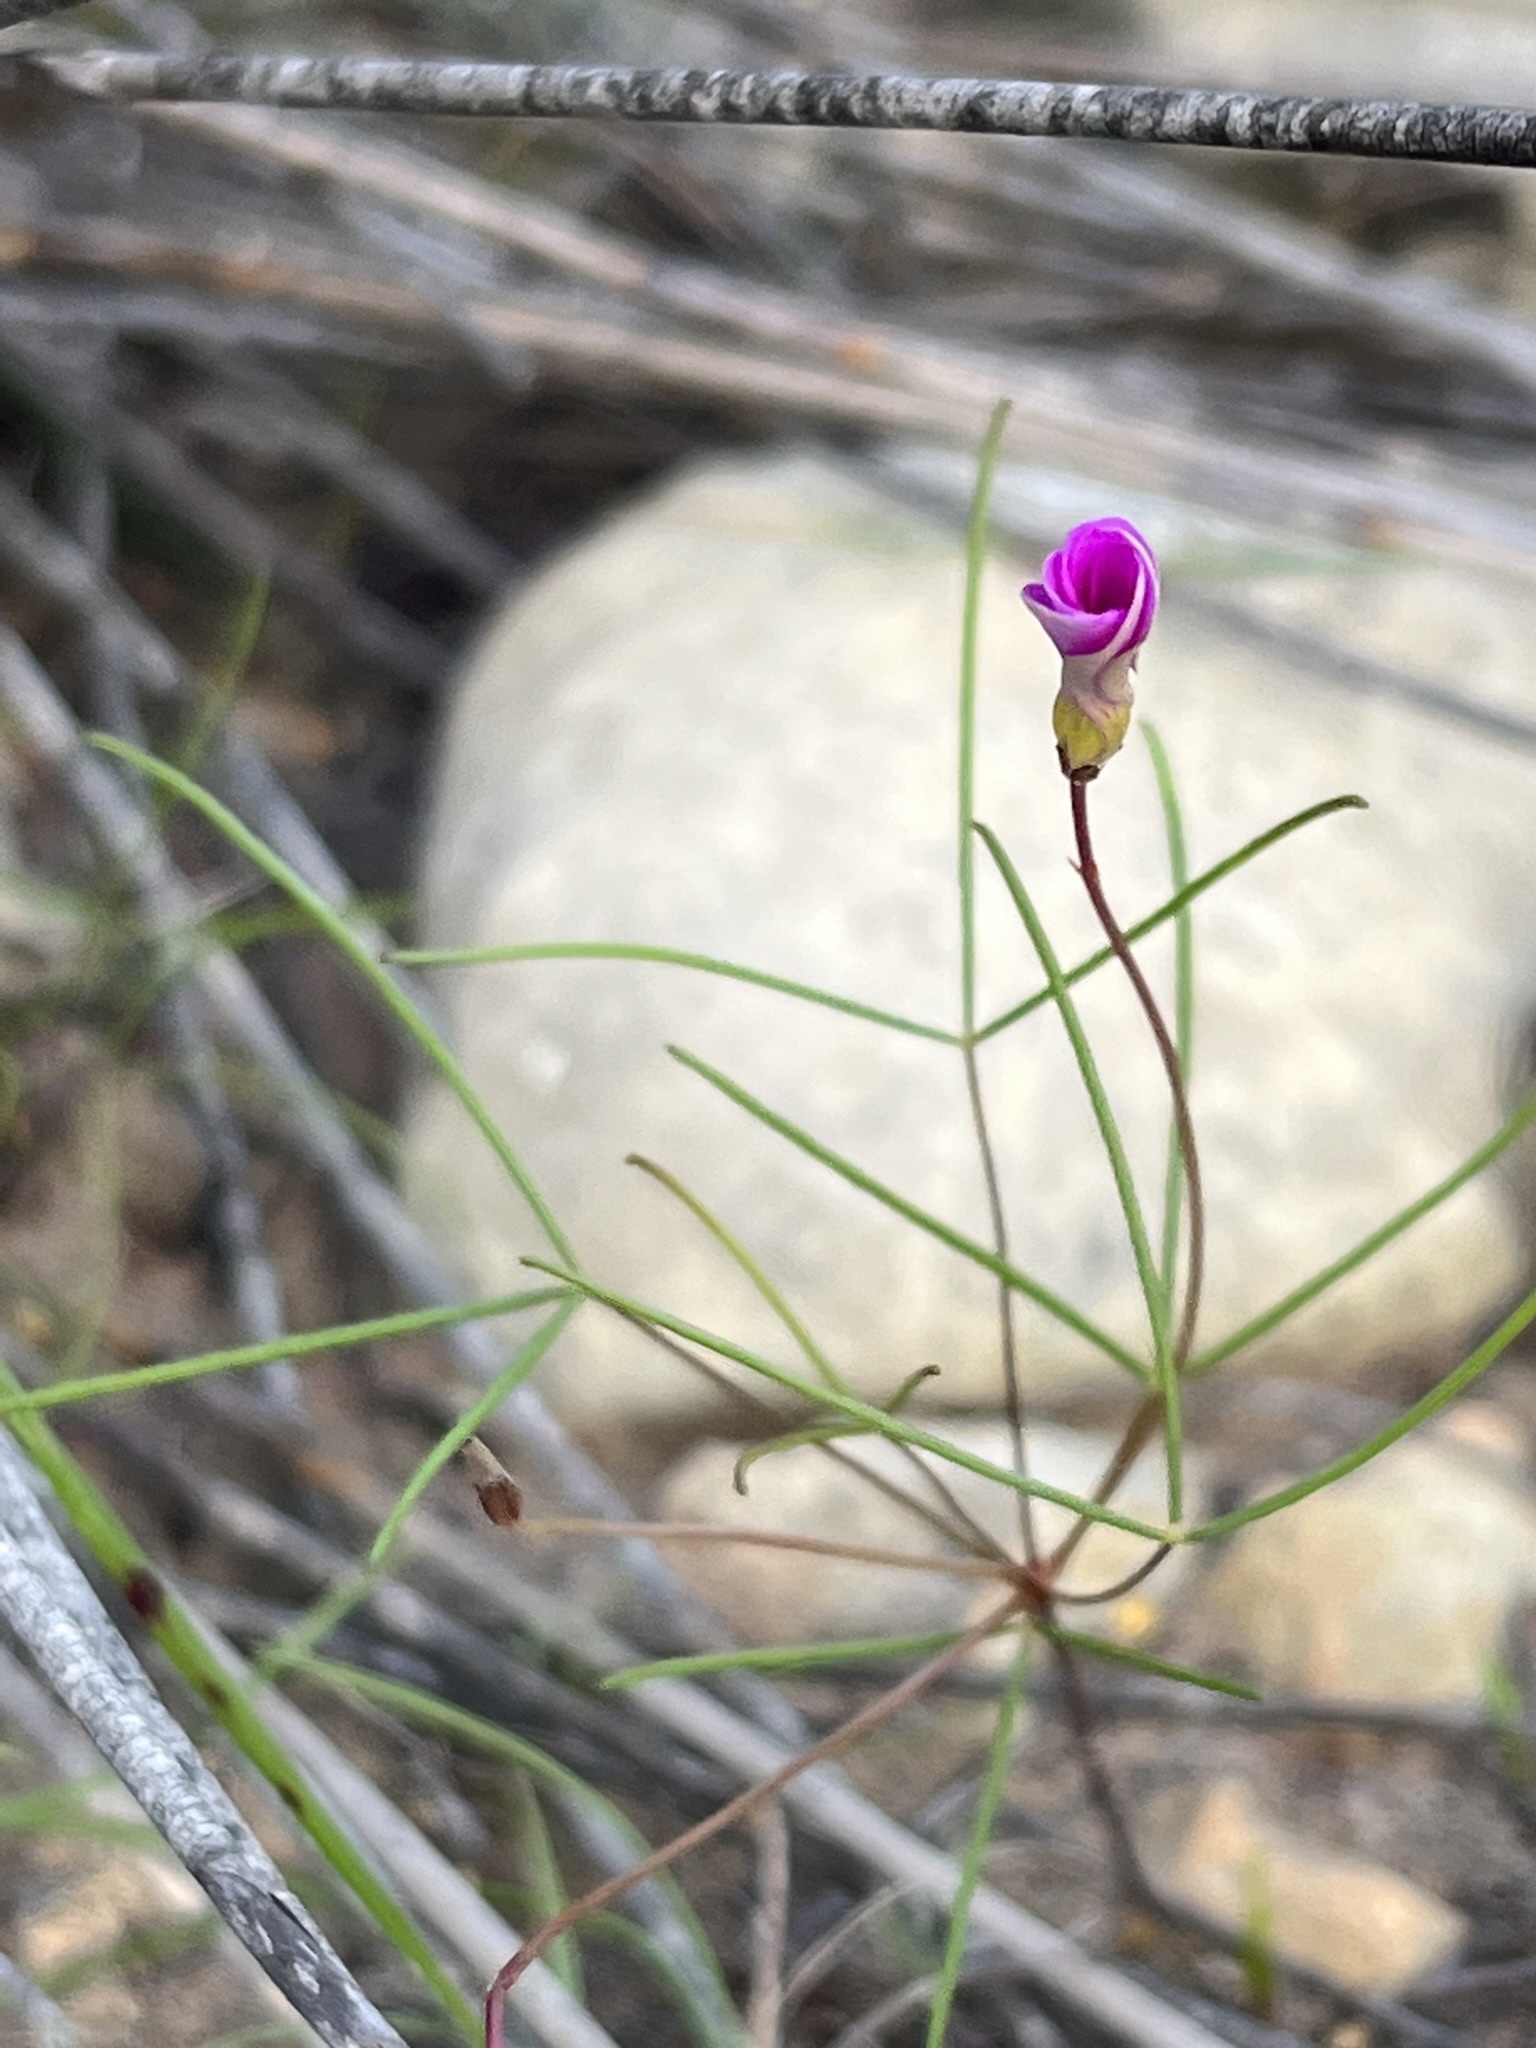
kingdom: Plantae
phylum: Tracheophyta
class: Magnoliopsida
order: Oxalidales
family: Oxalidaceae
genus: Oxalis
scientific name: Oxalis polyphylla
